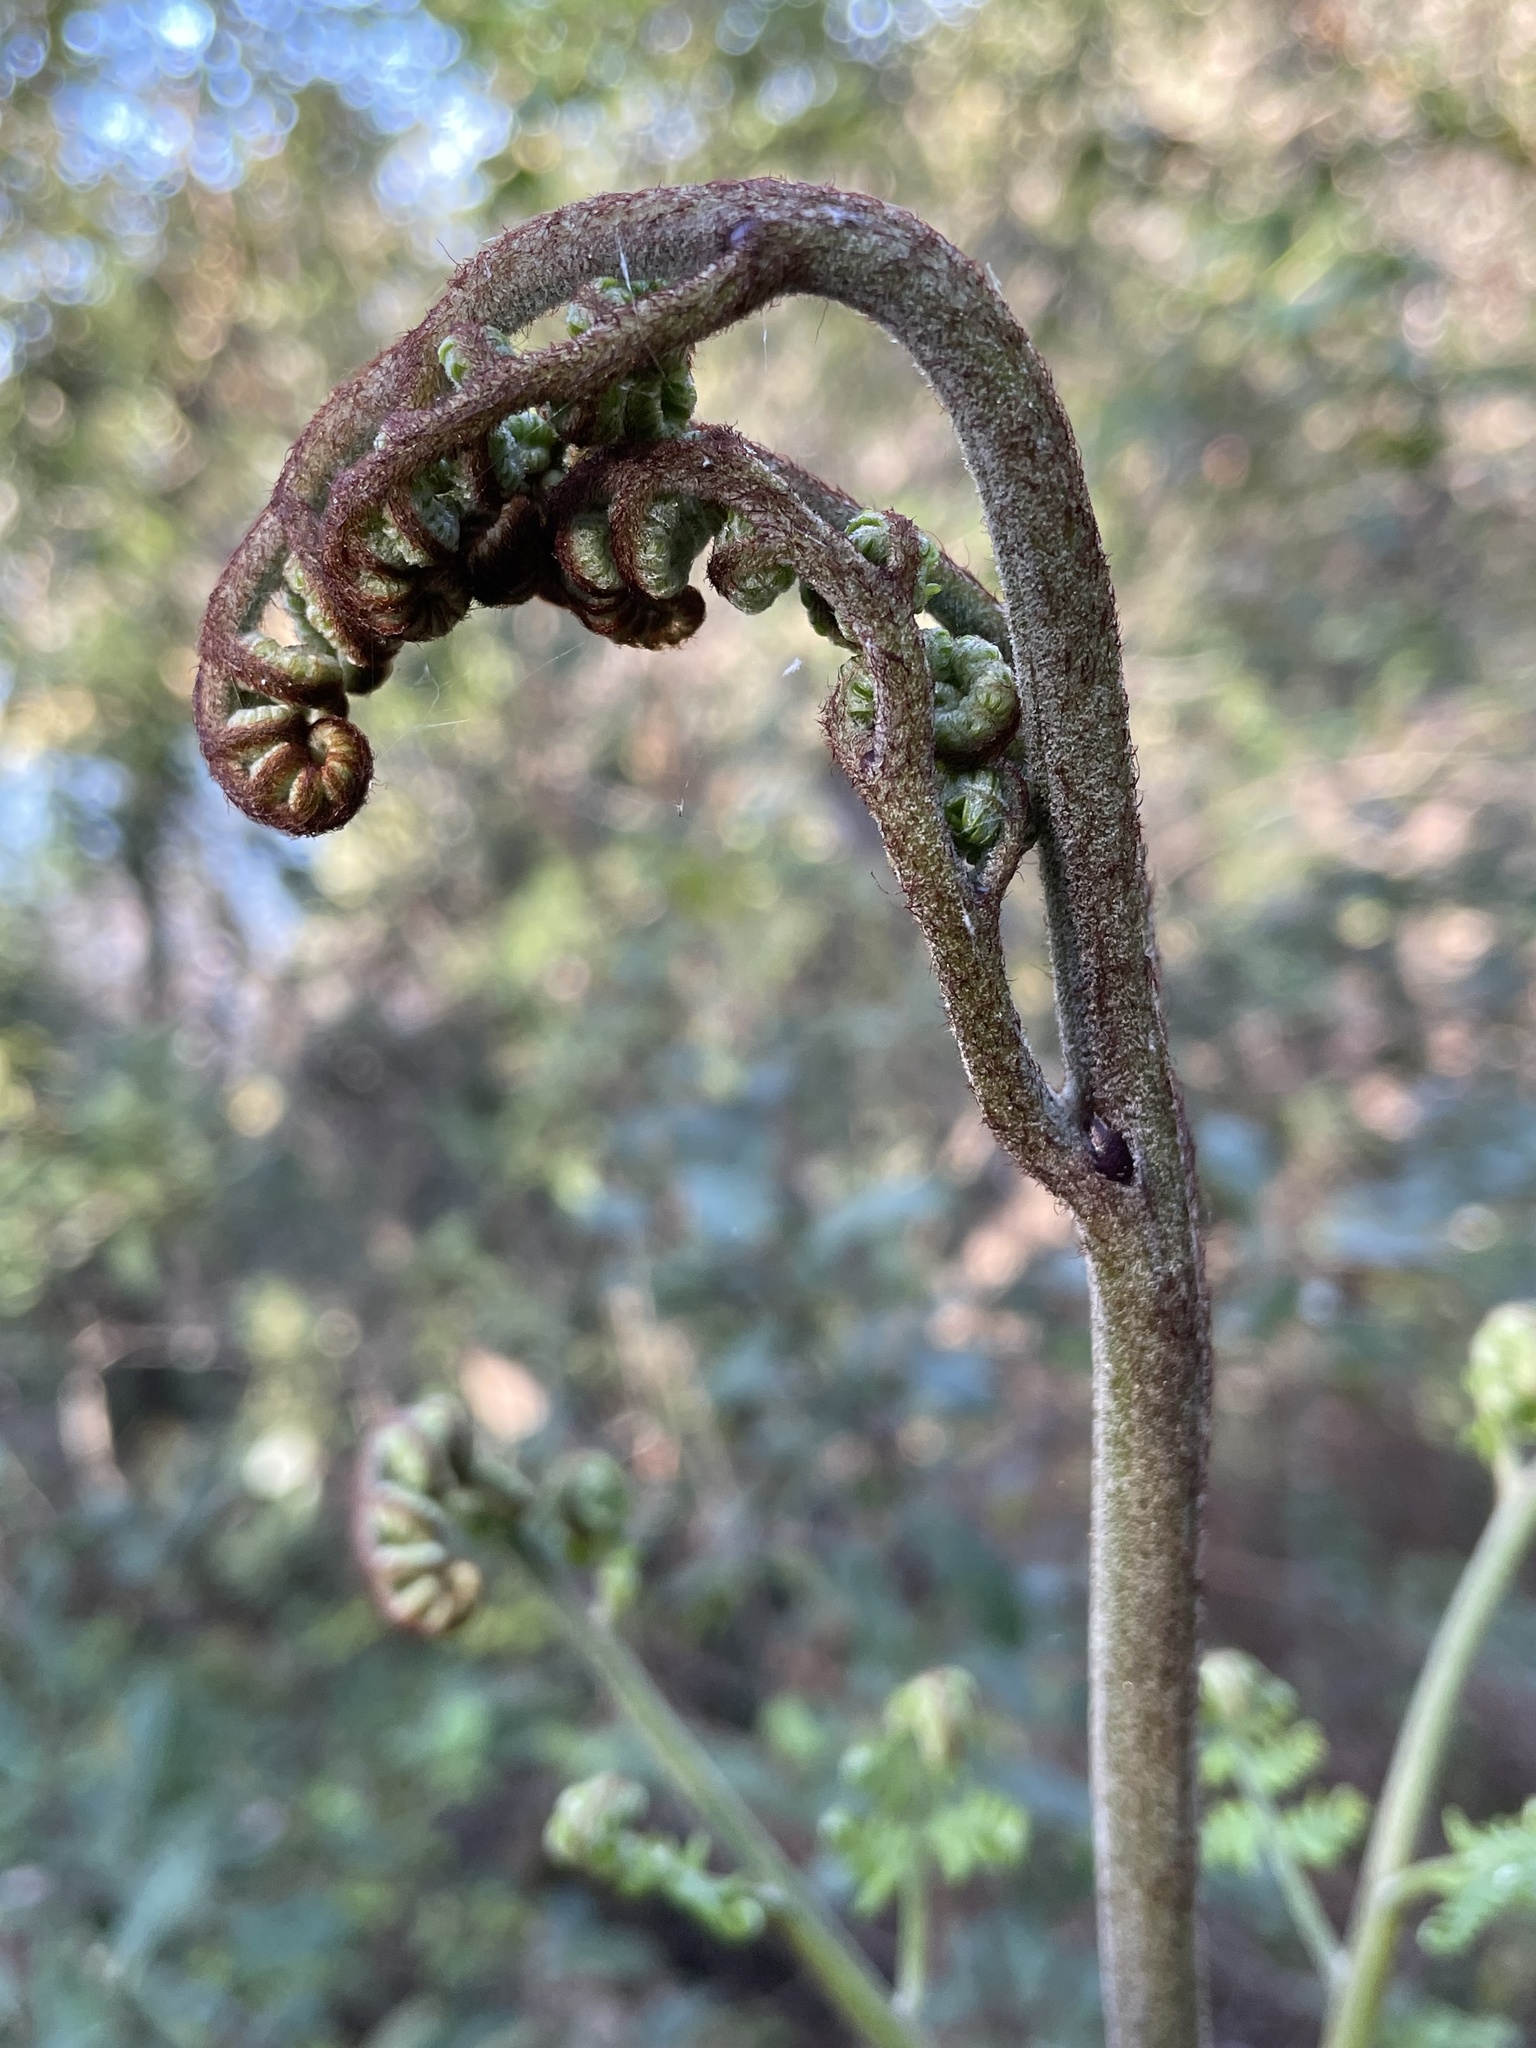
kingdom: Plantae
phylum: Tracheophyta
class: Polypodiopsida
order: Polypodiales
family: Dennstaedtiaceae
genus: Pteridium
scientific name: Pteridium aquilinum
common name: Bracken
